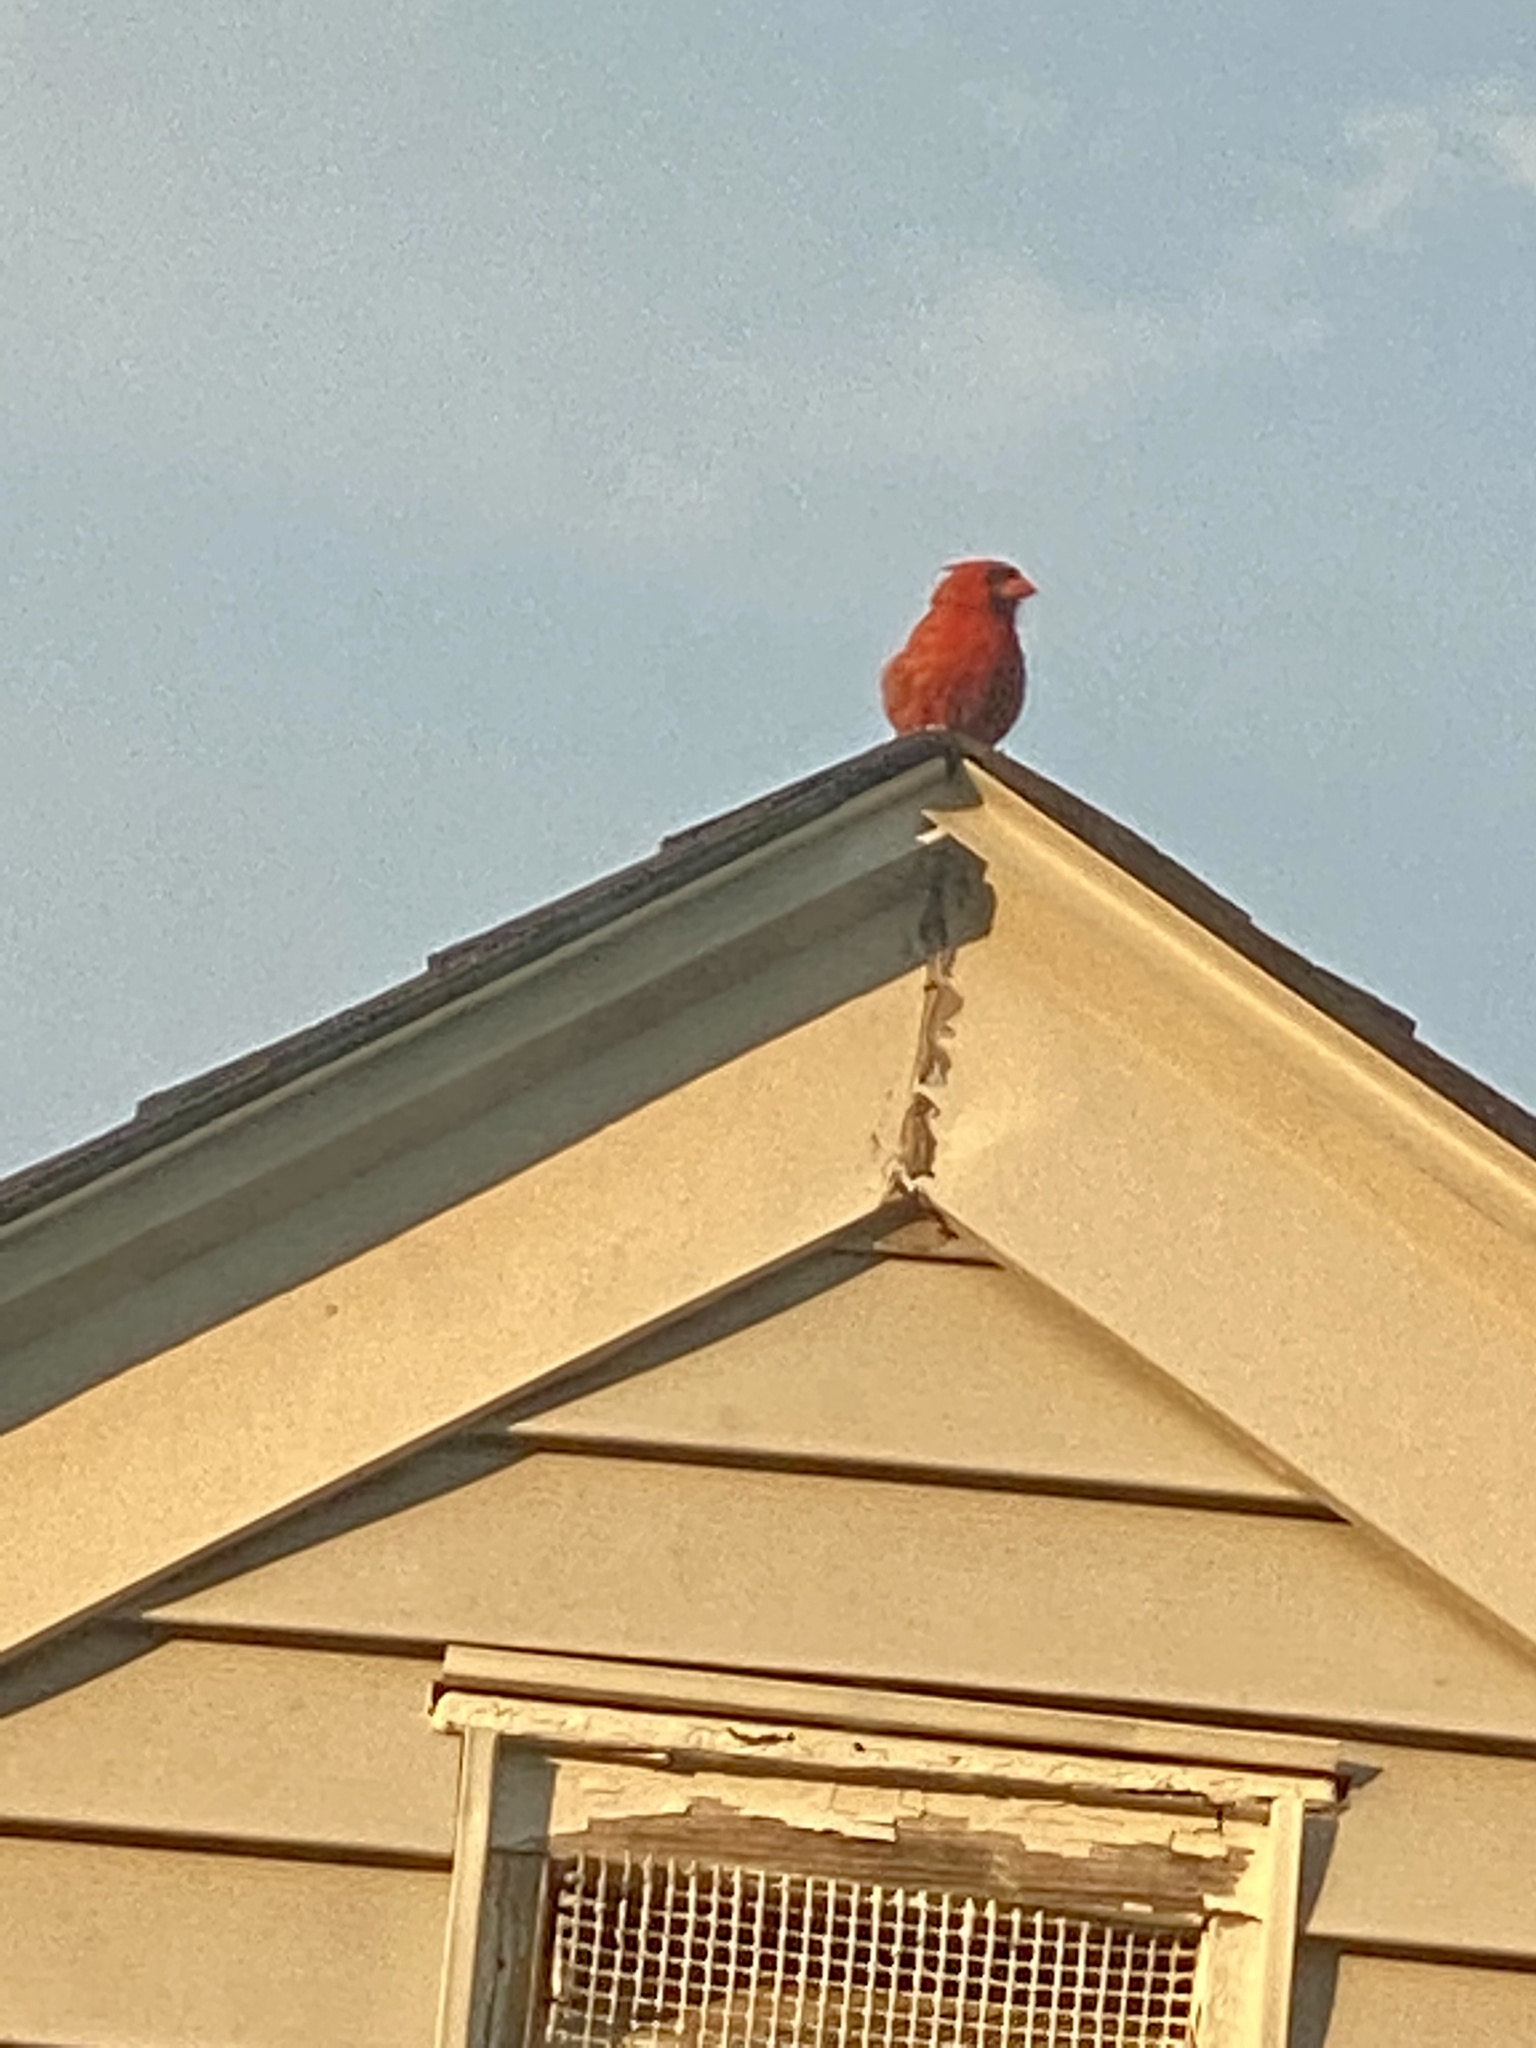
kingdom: Animalia
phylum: Chordata
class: Aves
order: Passeriformes
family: Cardinalidae
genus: Cardinalis
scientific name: Cardinalis cardinalis
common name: Northern cardinal
